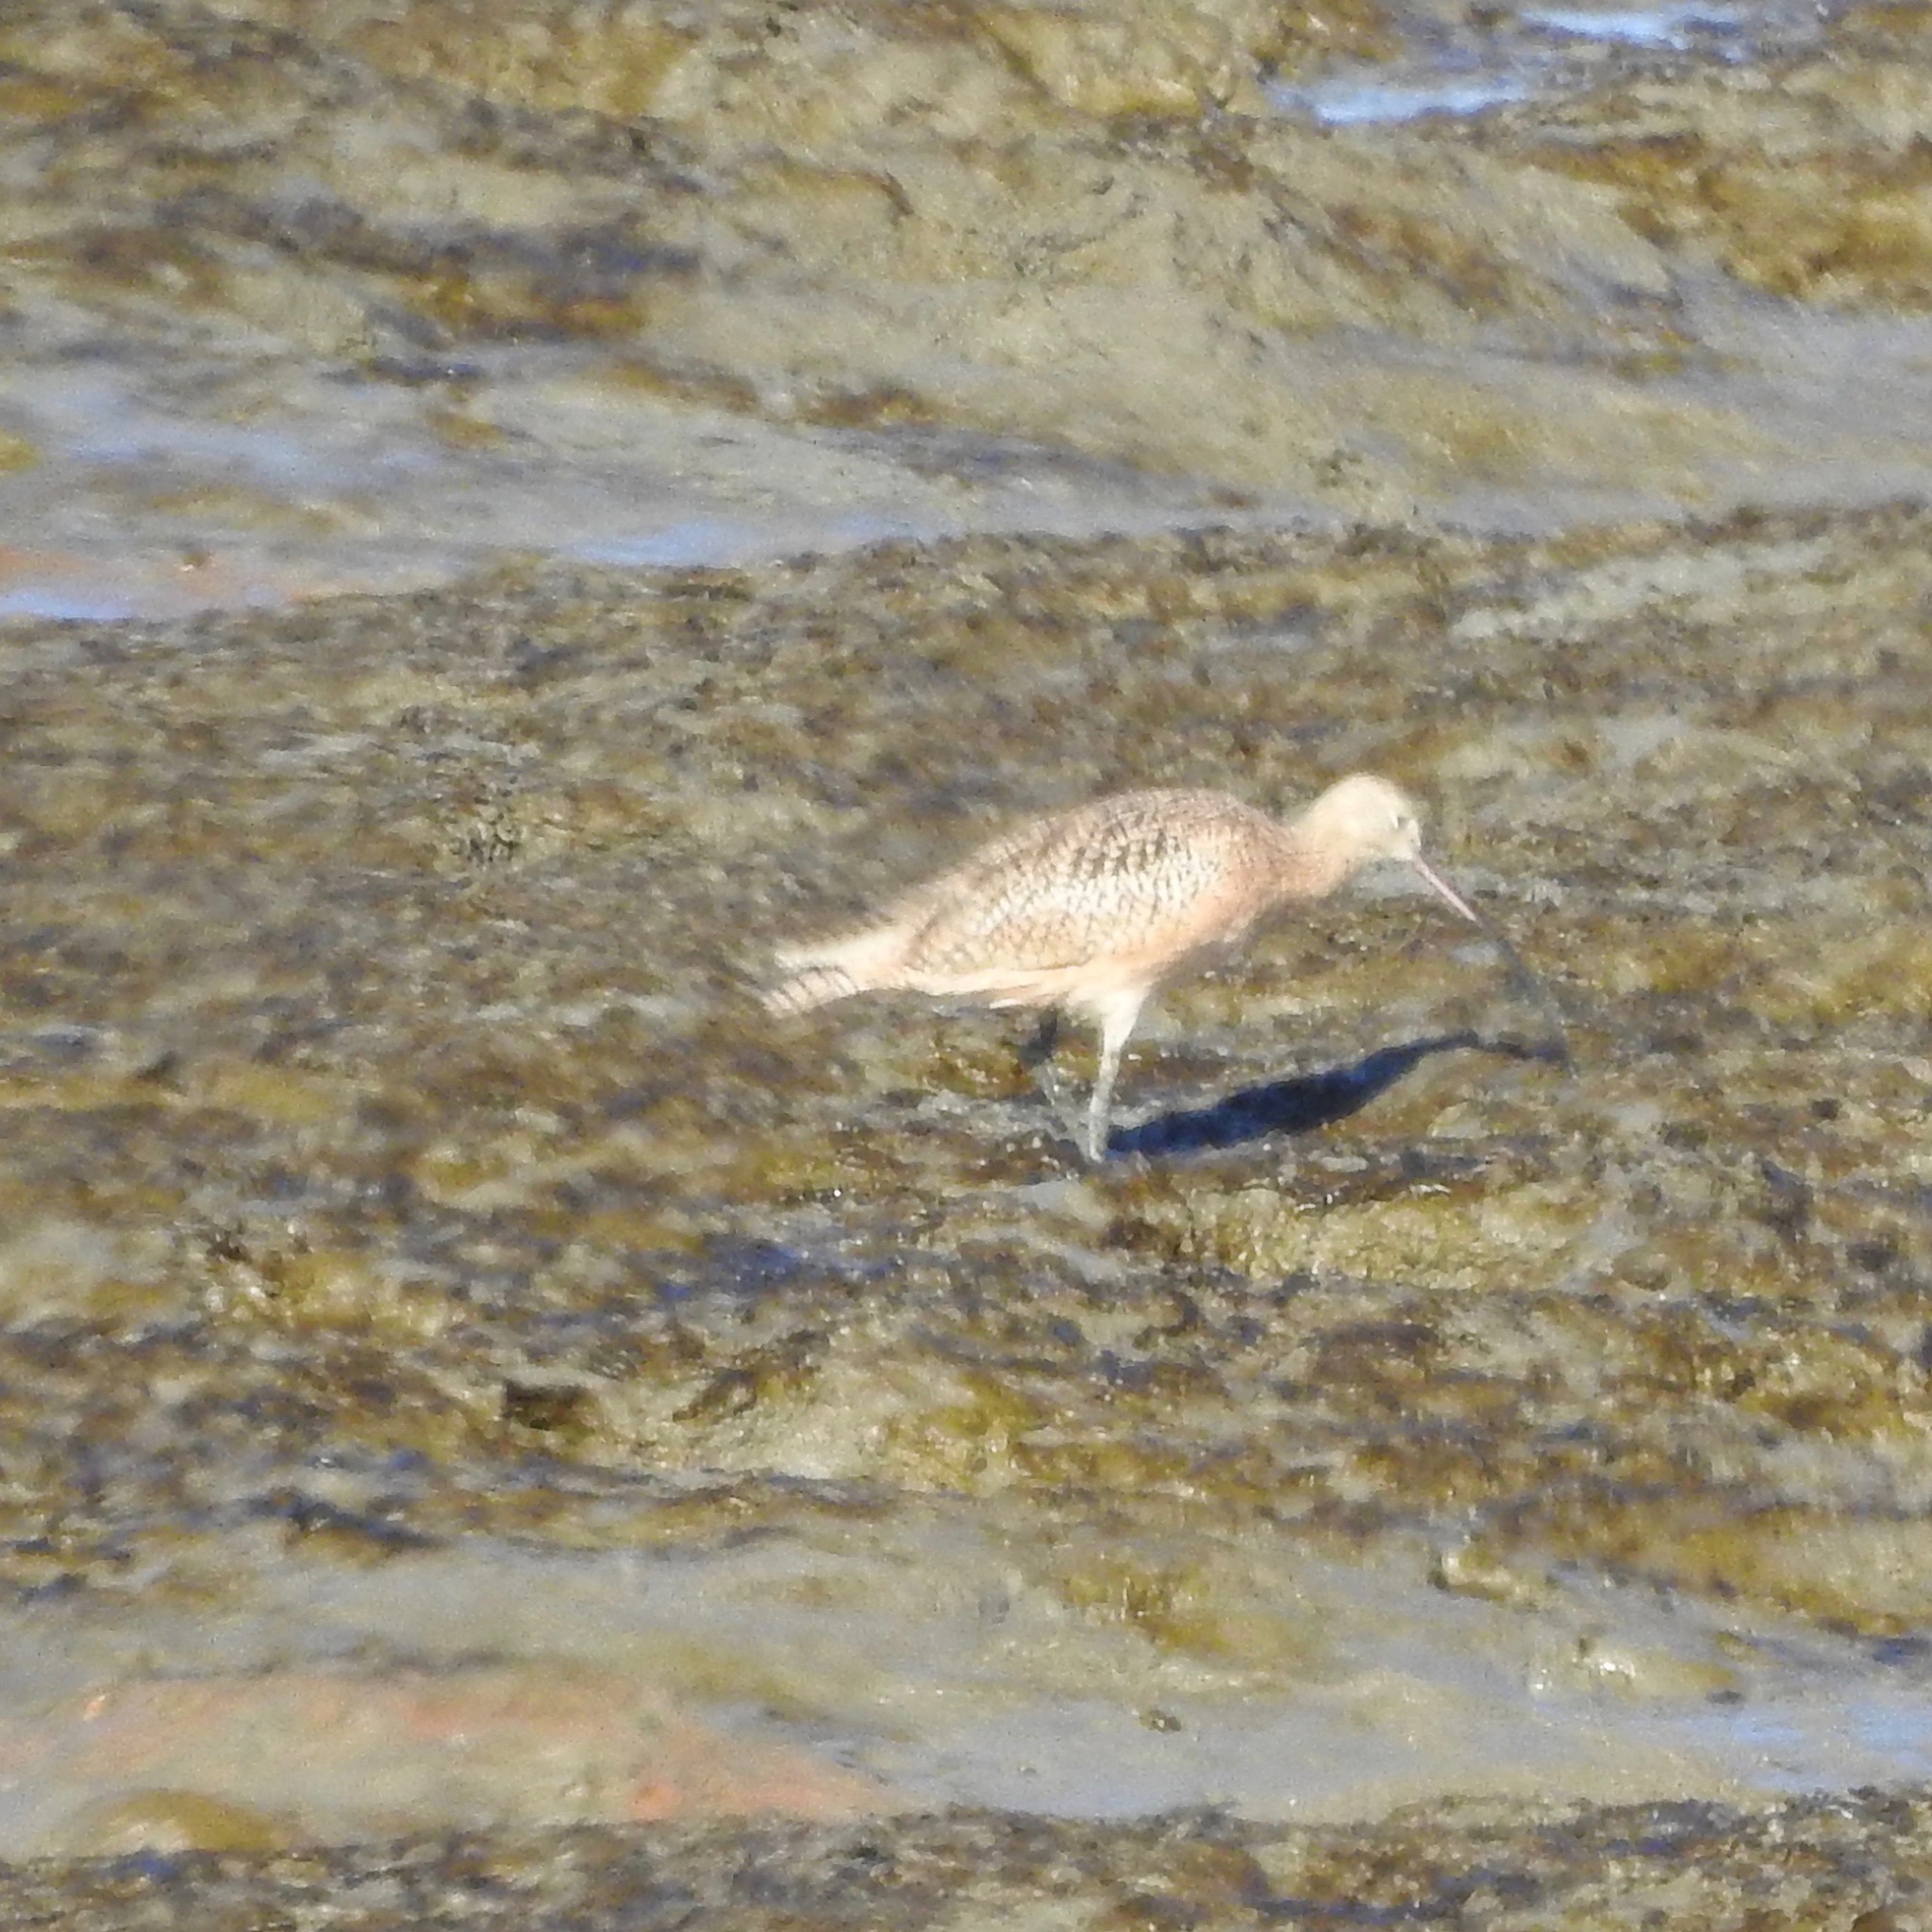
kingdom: Animalia
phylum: Chordata
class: Aves
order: Charadriiformes
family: Scolopacidae
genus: Numenius
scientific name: Numenius americanus
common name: Long-billed curlew
